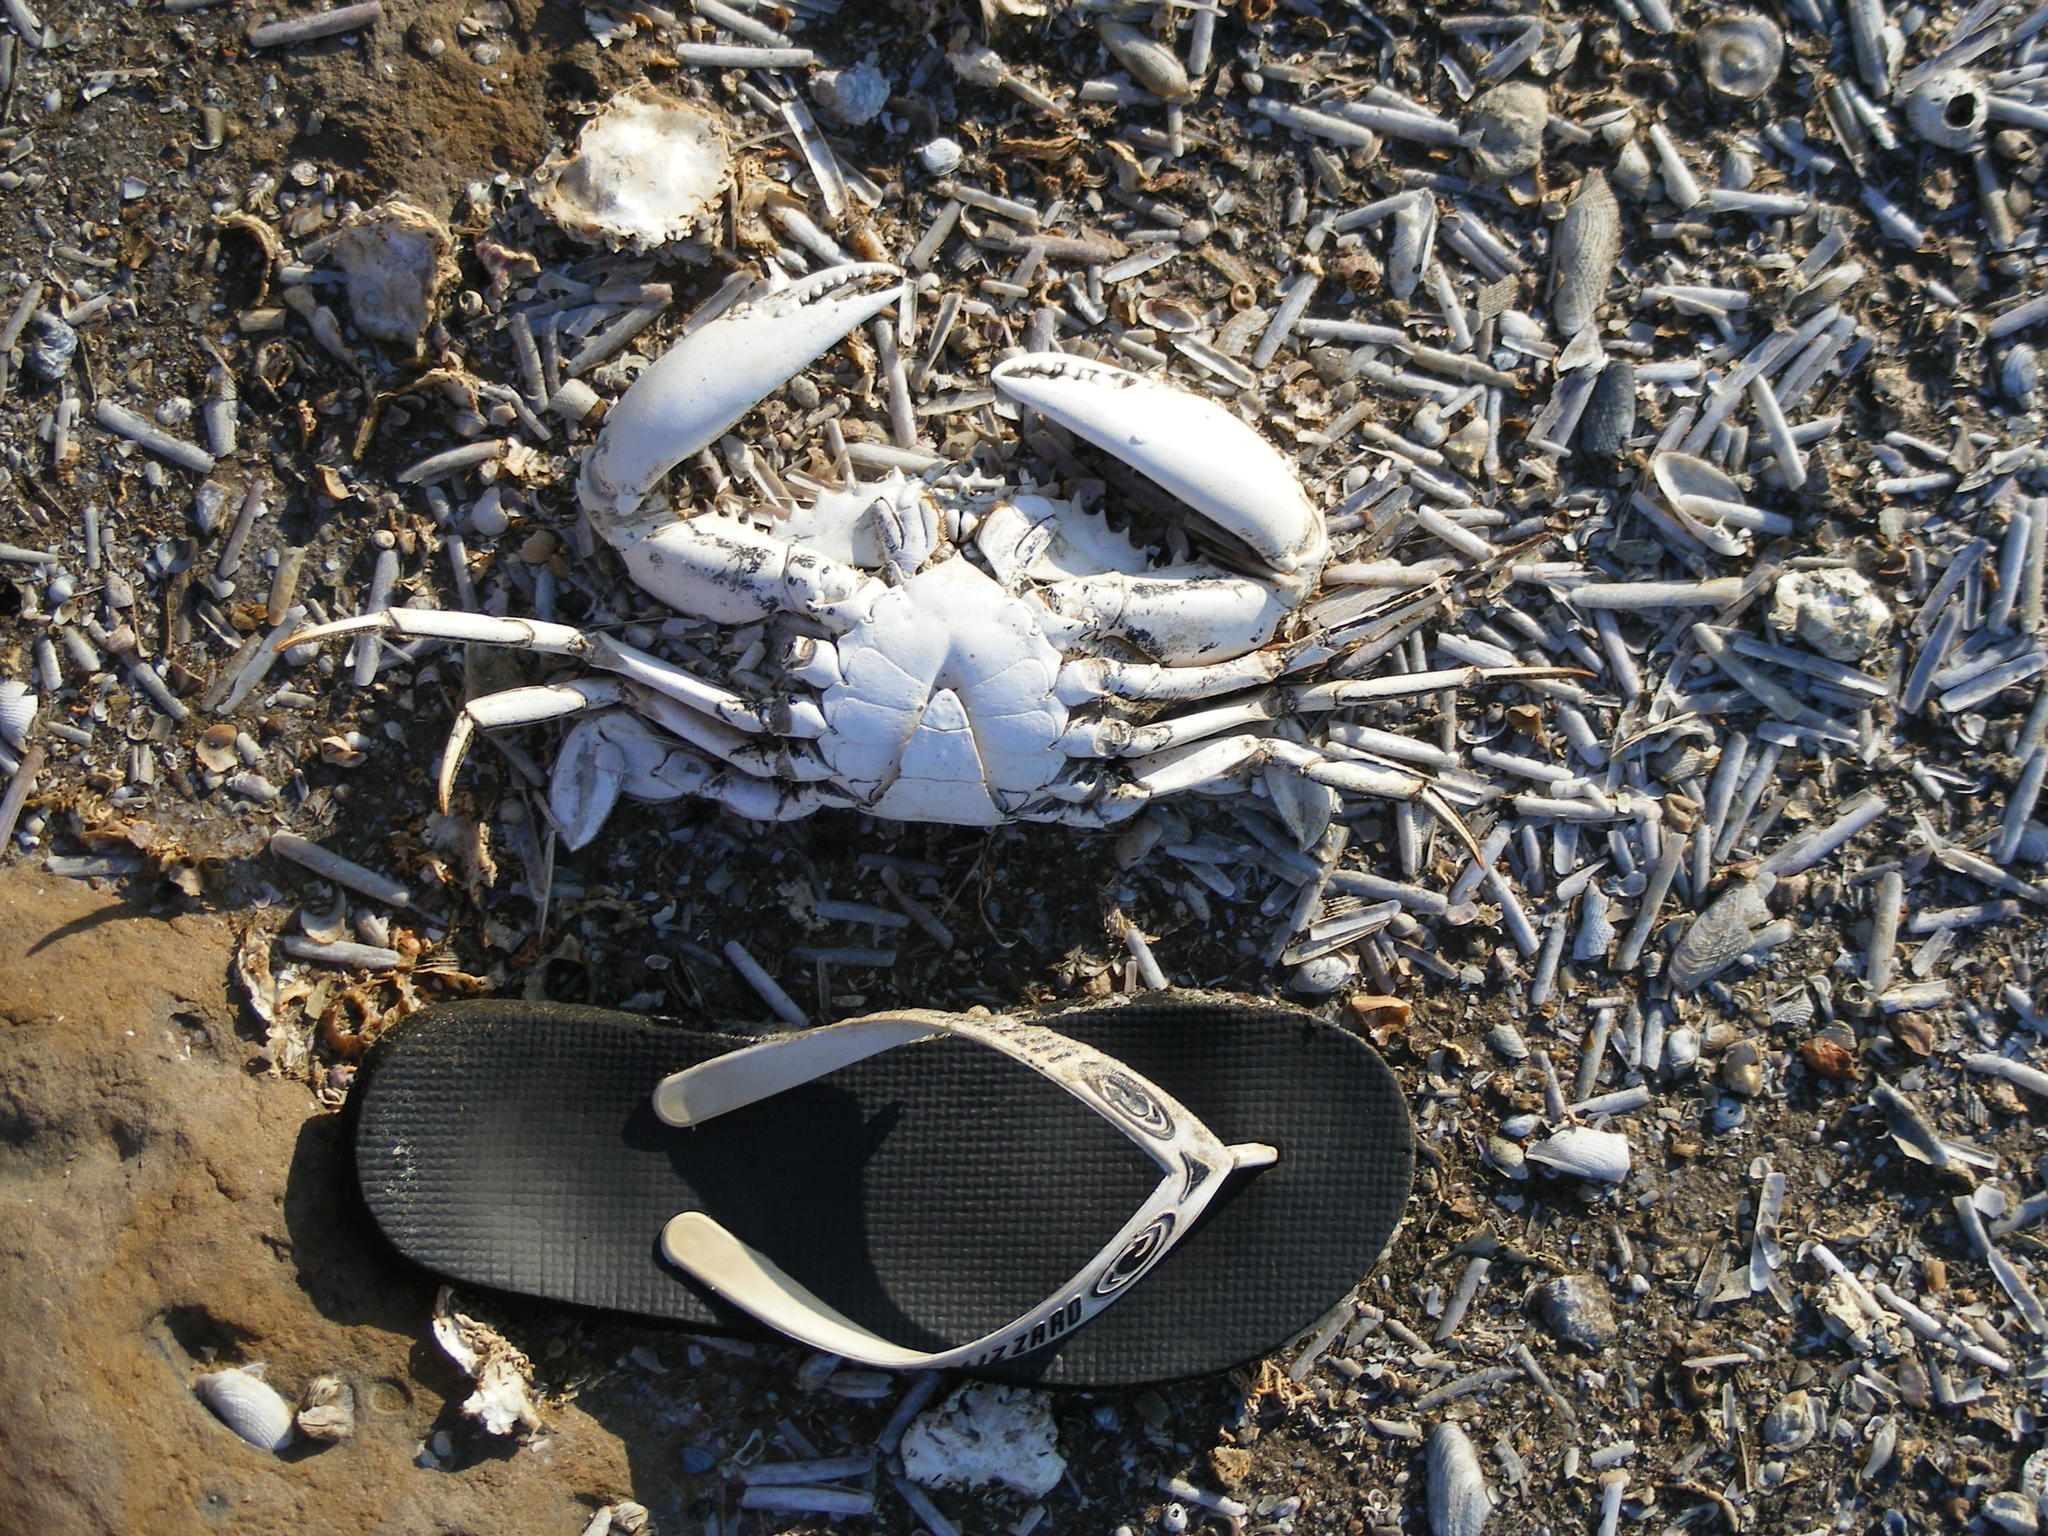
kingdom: Animalia
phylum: Arthropoda
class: Malacostraca
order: Decapoda
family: Portunidae
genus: Scylla
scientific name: Scylla serrata
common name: Giant mud crab
